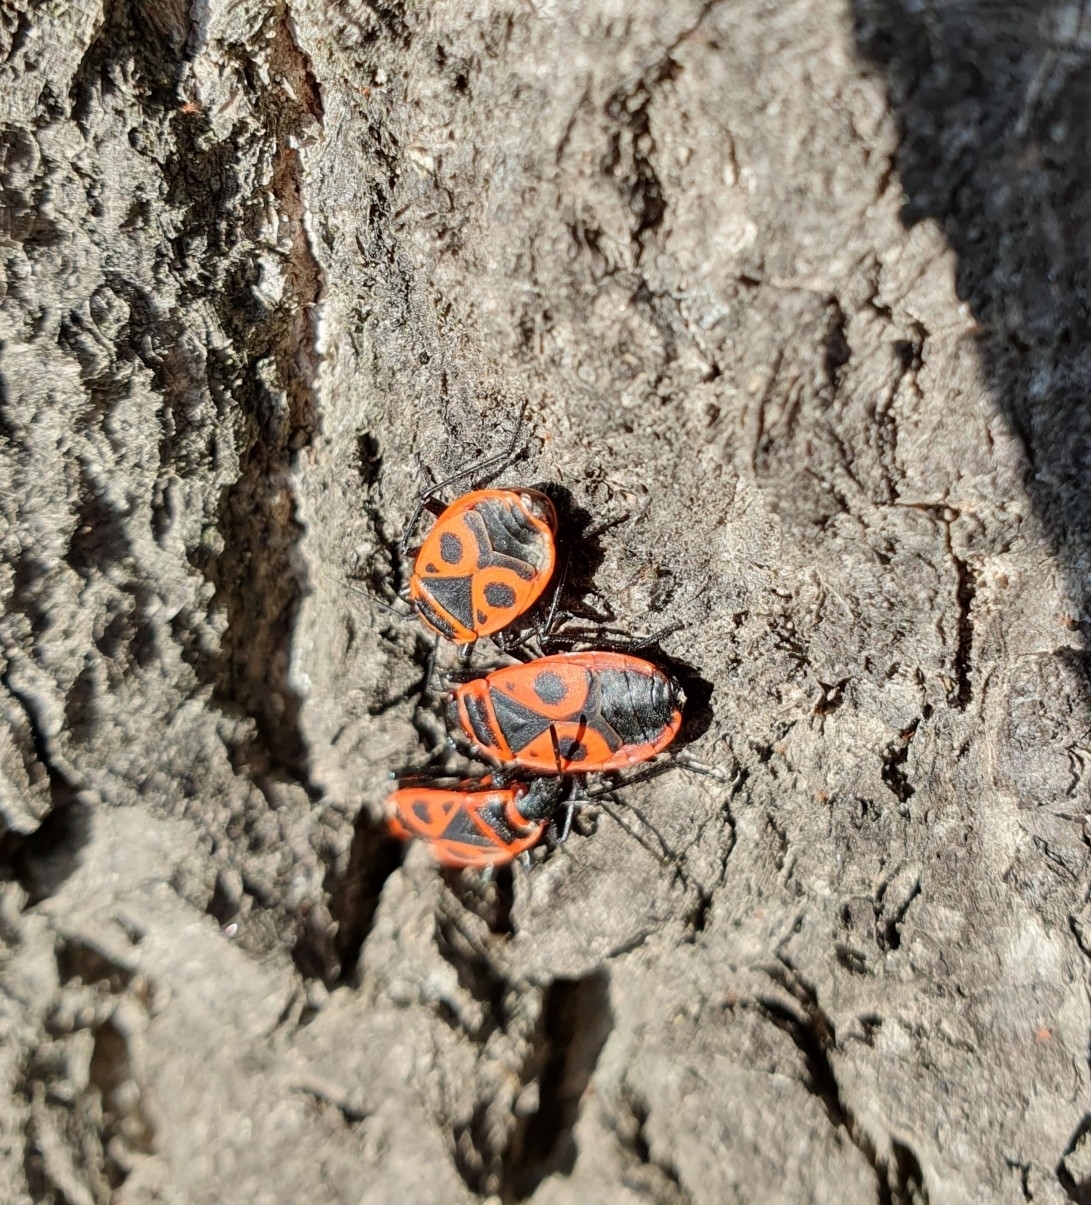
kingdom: Animalia
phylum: Arthropoda
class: Insecta
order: Hemiptera
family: Pyrrhocoridae
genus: Pyrrhocoris
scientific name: Pyrrhocoris apterus
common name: Firebug
